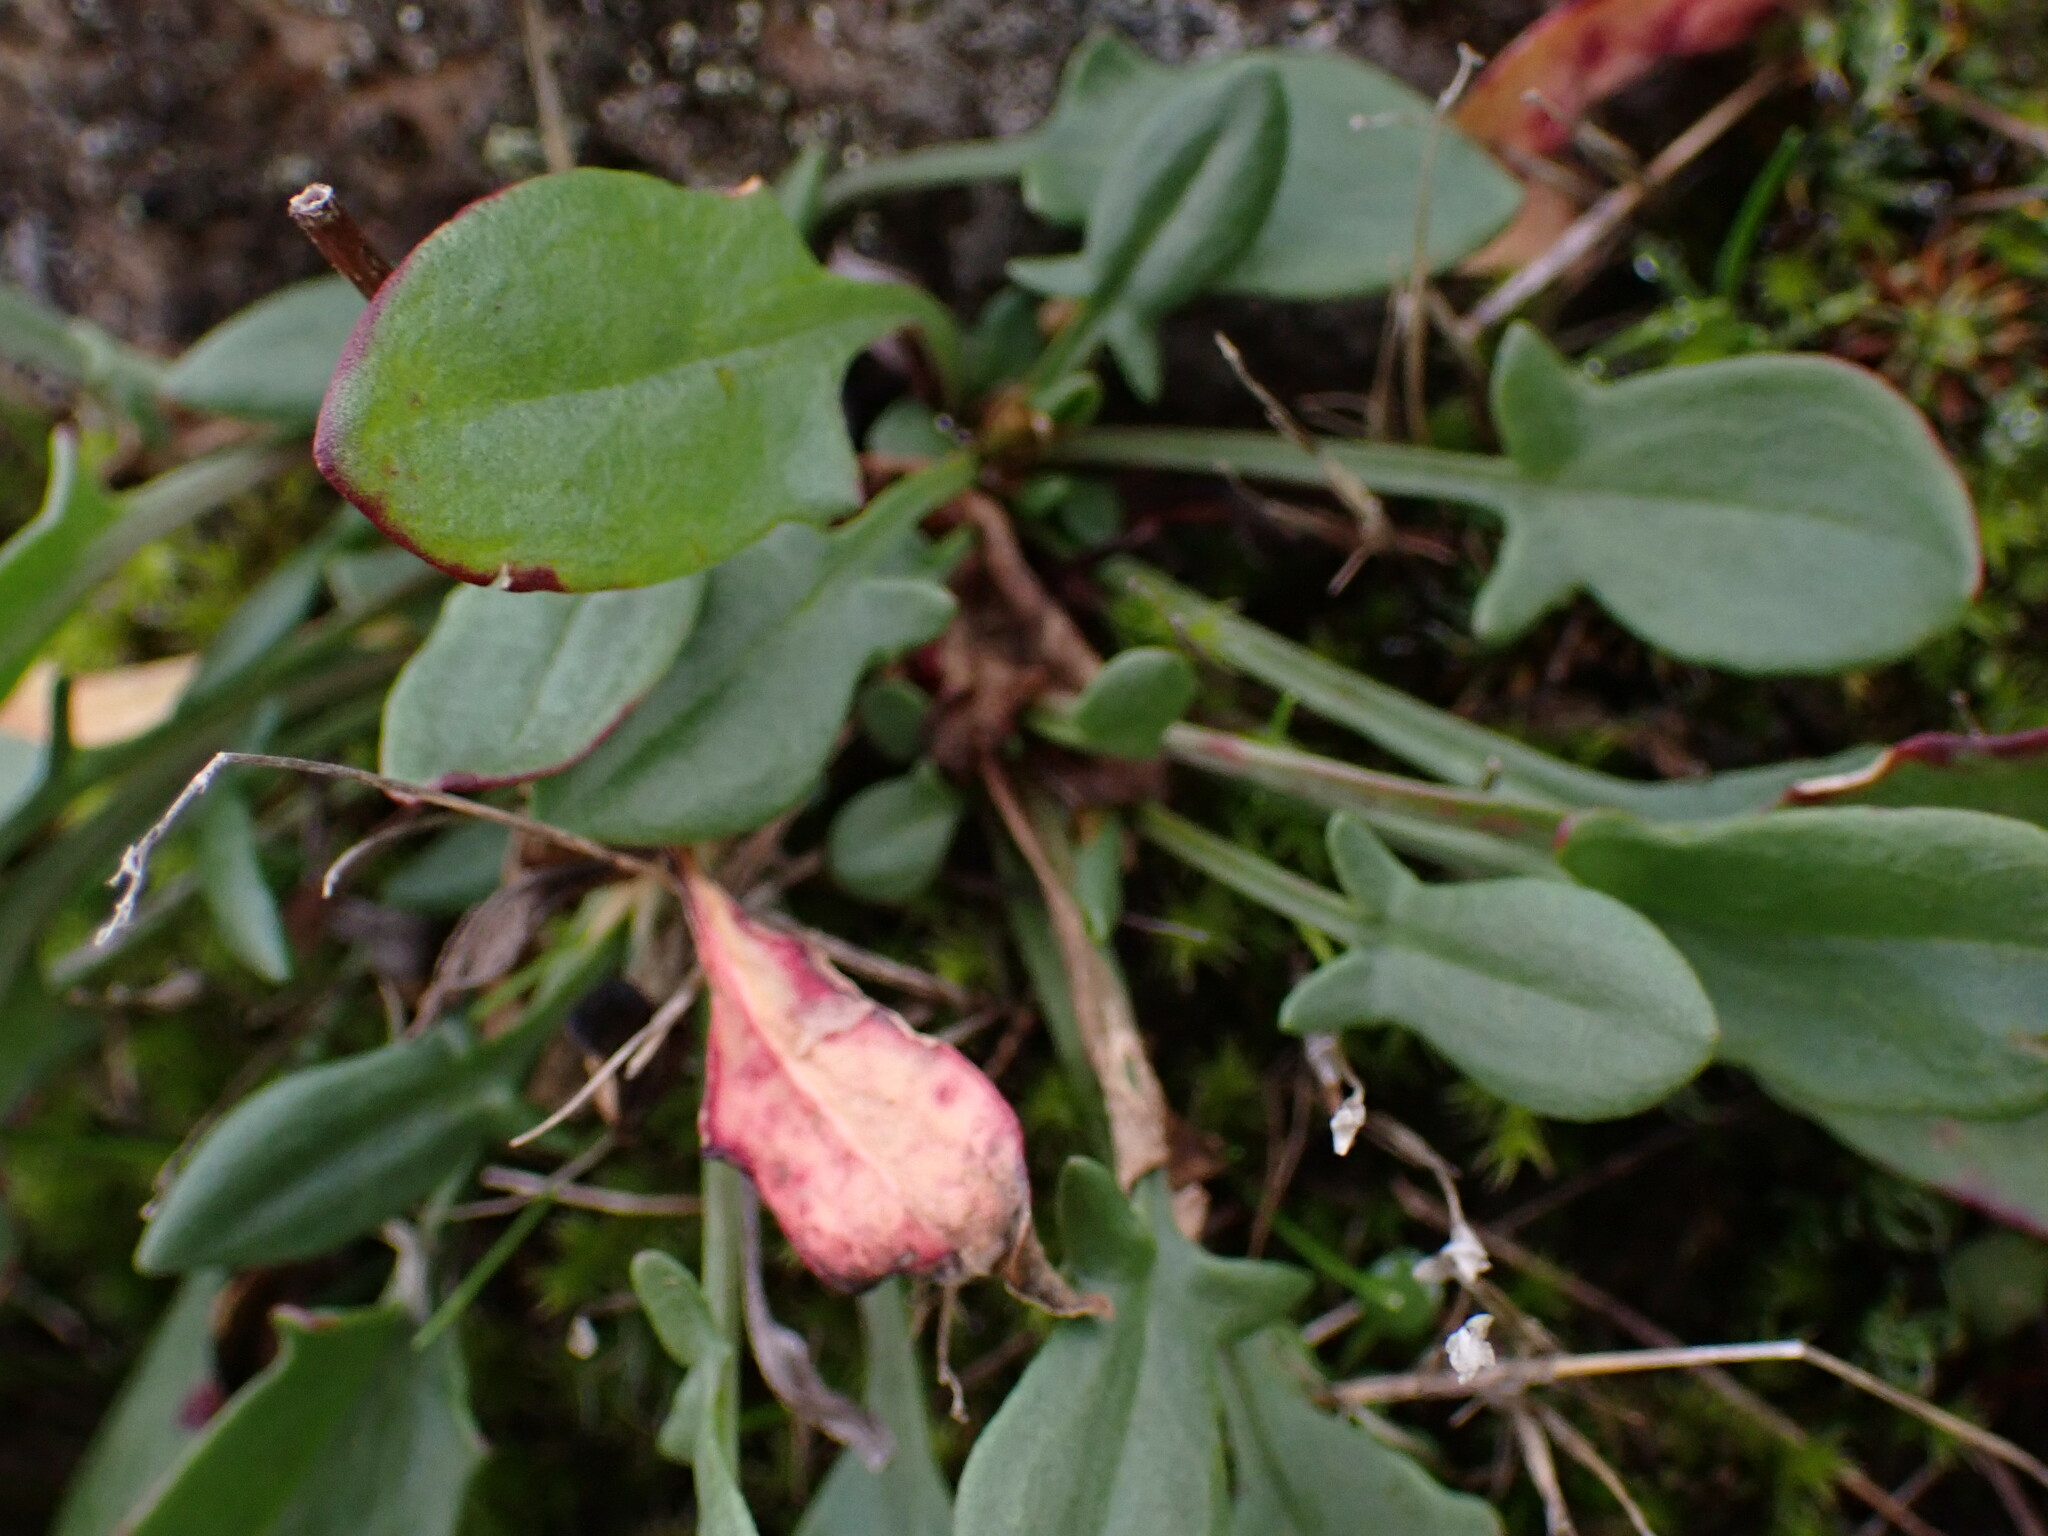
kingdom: Plantae
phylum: Tracheophyta
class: Magnoliopsida
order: Caryophyllales
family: Polygonaceae
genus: Rumex
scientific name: Rumex acetosella
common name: Common sheep sorrel
